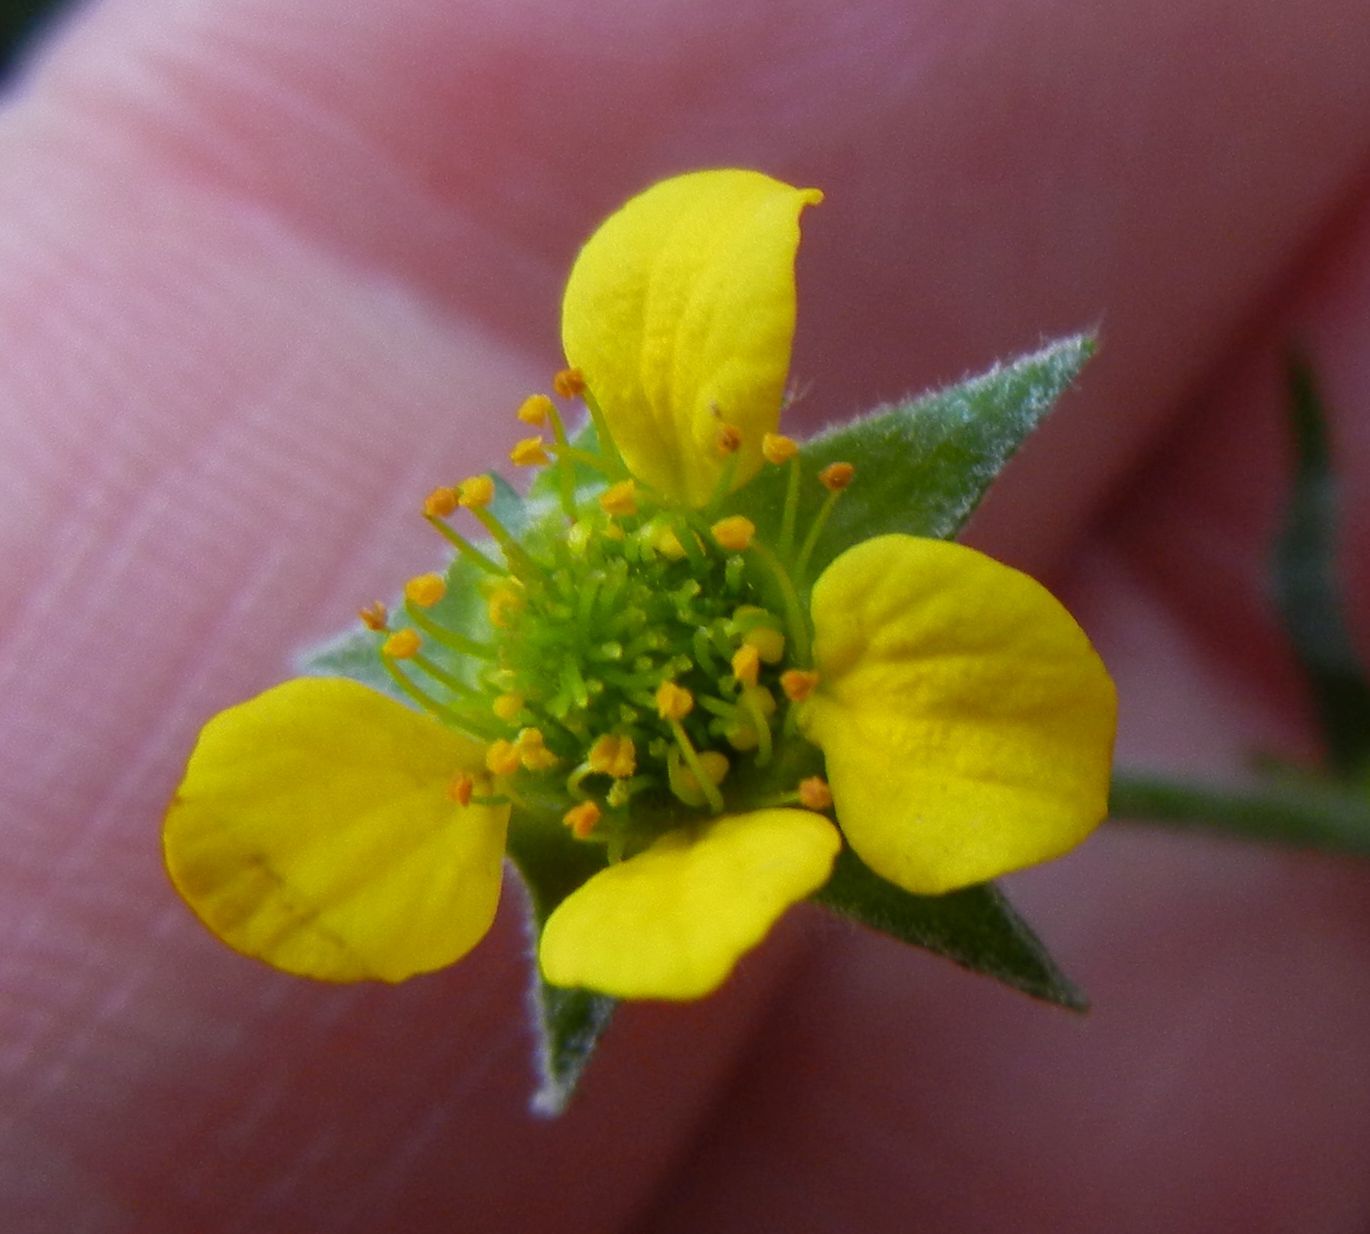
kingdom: Plantae
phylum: Tracheophyta
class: Magnoliopsida
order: Rosales
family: Rosaceae
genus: Geum
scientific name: Geum urbanum
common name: Wood avens
